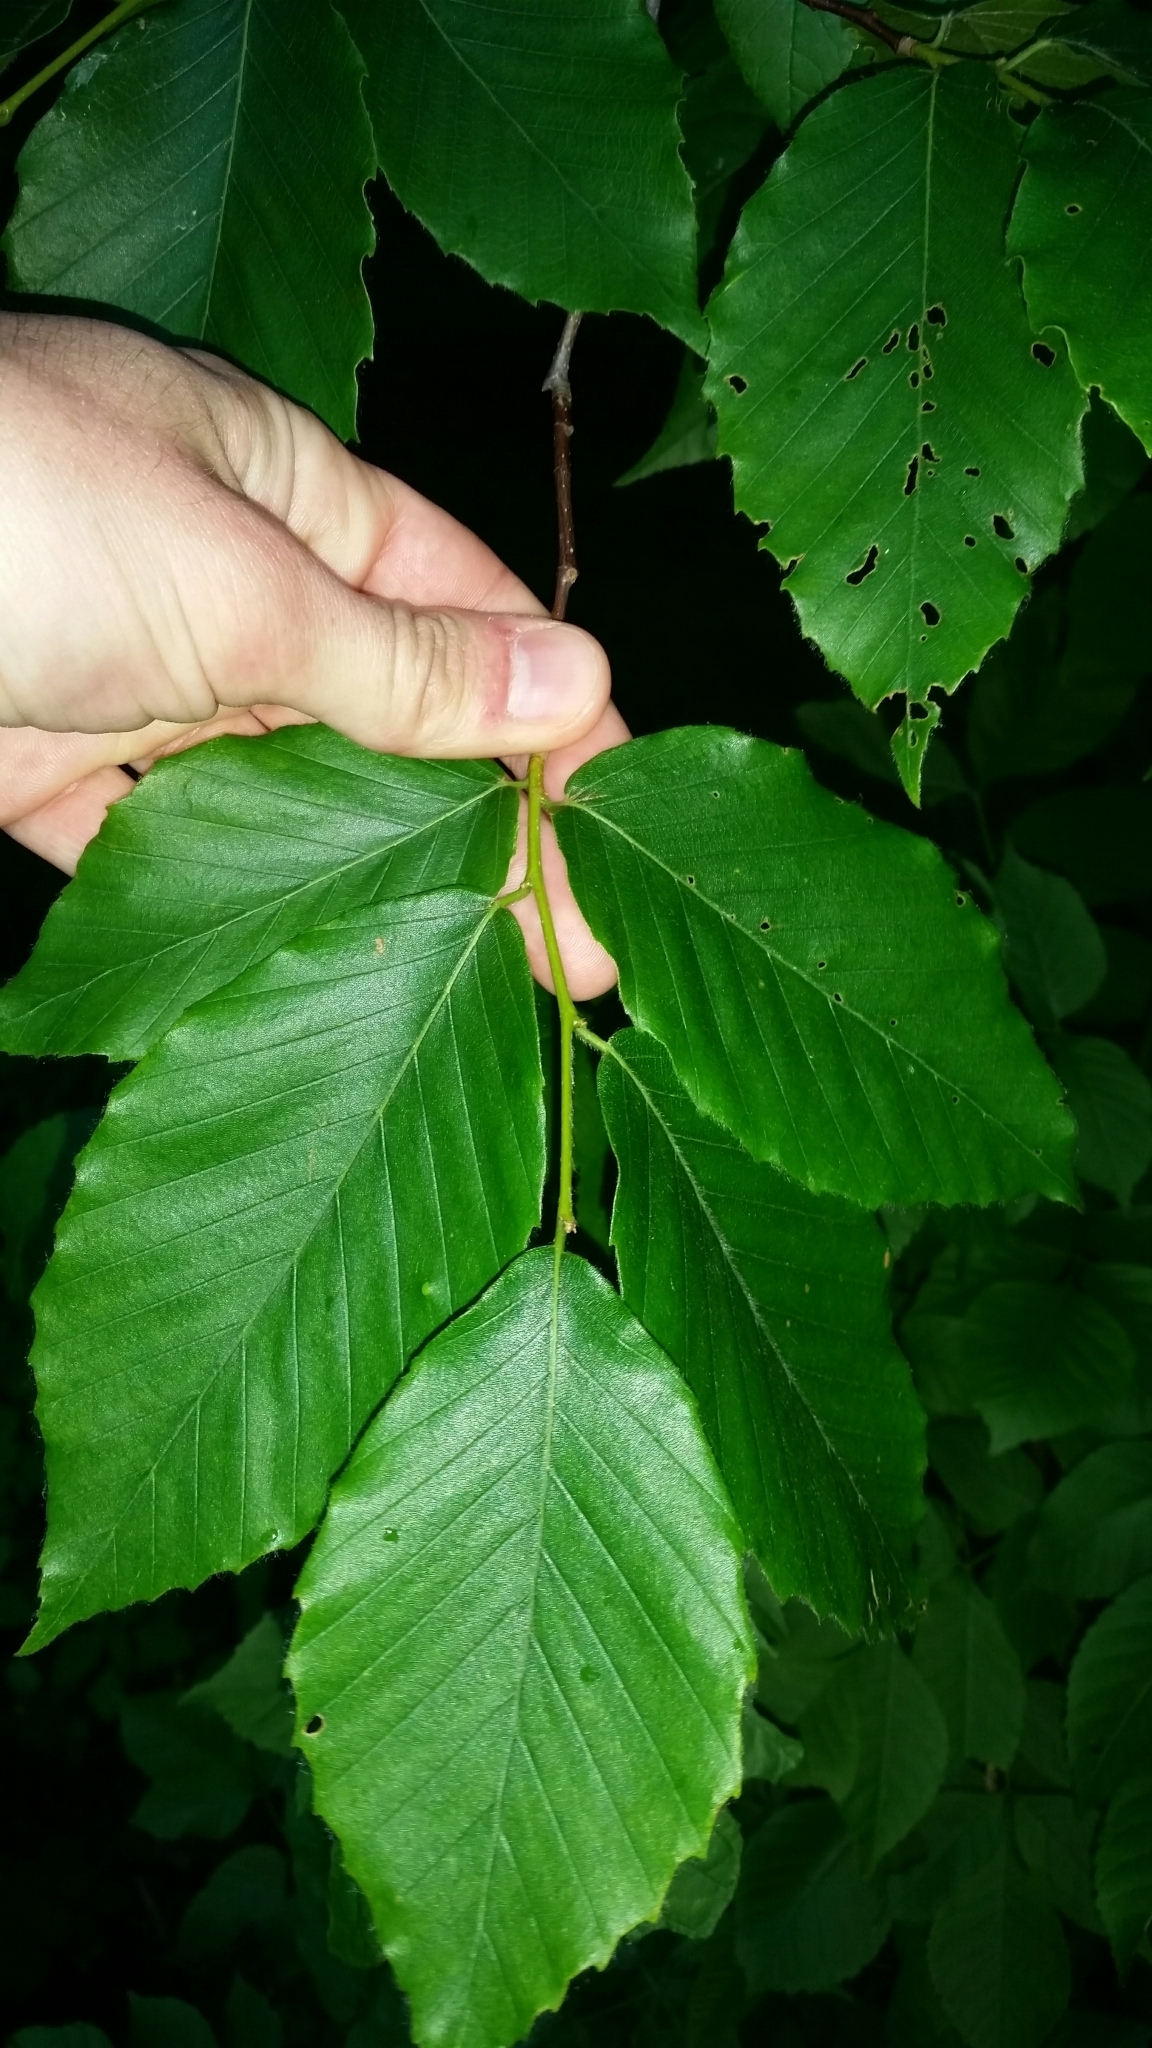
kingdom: Plantae
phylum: Tracheophyta
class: Magnoliopsida
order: Fagales
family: Fagaceae
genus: Fagus
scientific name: Fagus grandifolia
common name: American beech
